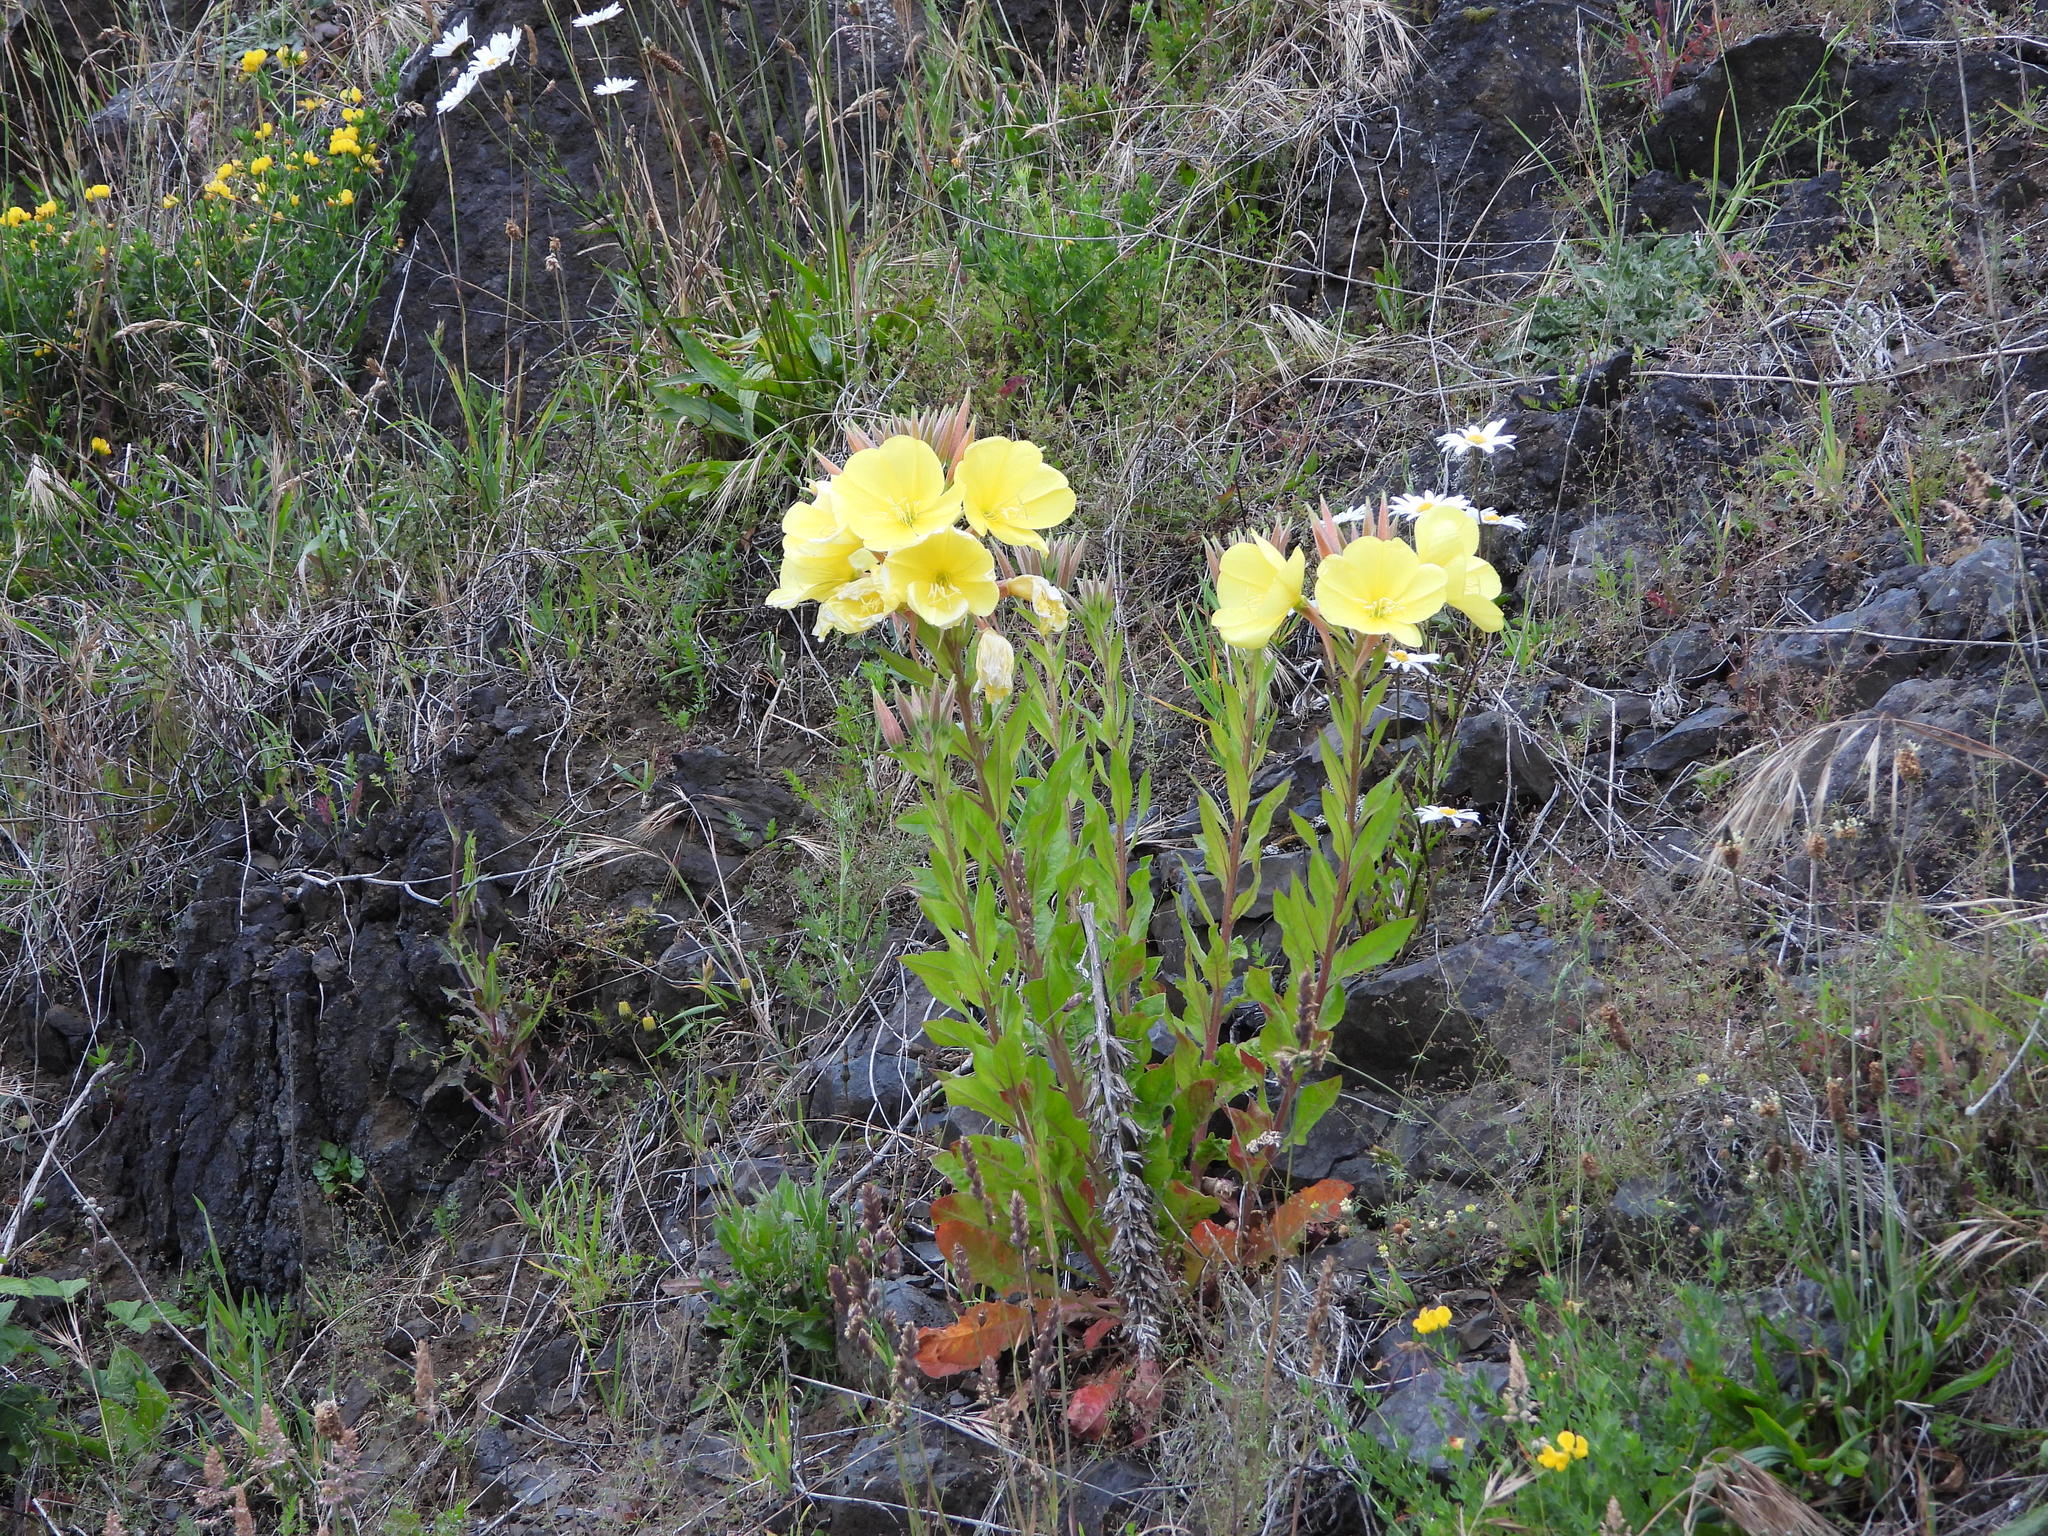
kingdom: Plantae
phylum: Tracheophyta
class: Magnoliopsida
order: Myrtales
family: Onagraceae
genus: Oenothera
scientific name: Oenothera glazioviana
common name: Large-flowered evening-primrose
